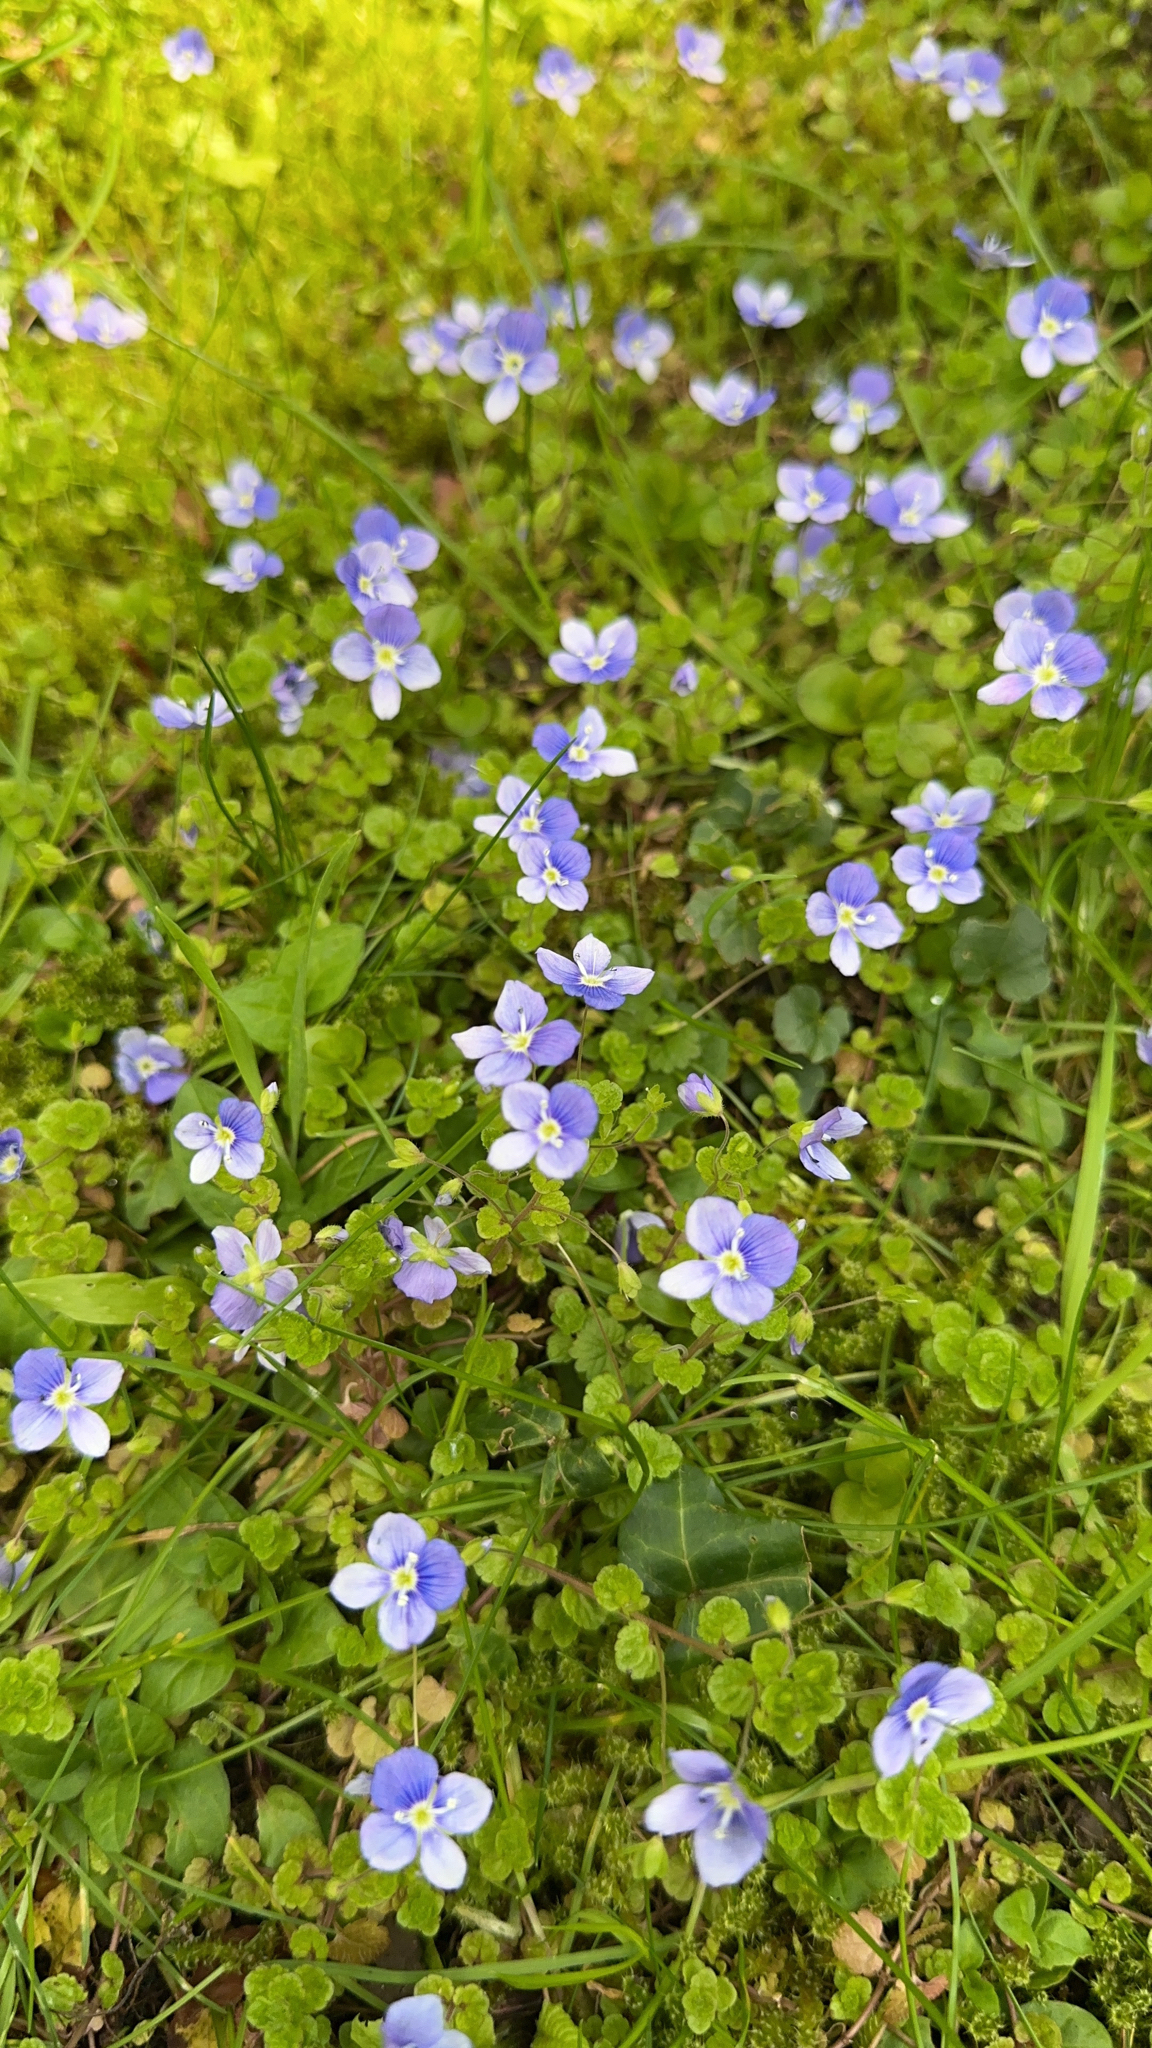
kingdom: Plantae
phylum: Tracheophyta
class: Magnoliopsida
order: Lamiales
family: Plantaginaceae
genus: Veronica
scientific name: Veronica filiformis
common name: Slender speedwell
